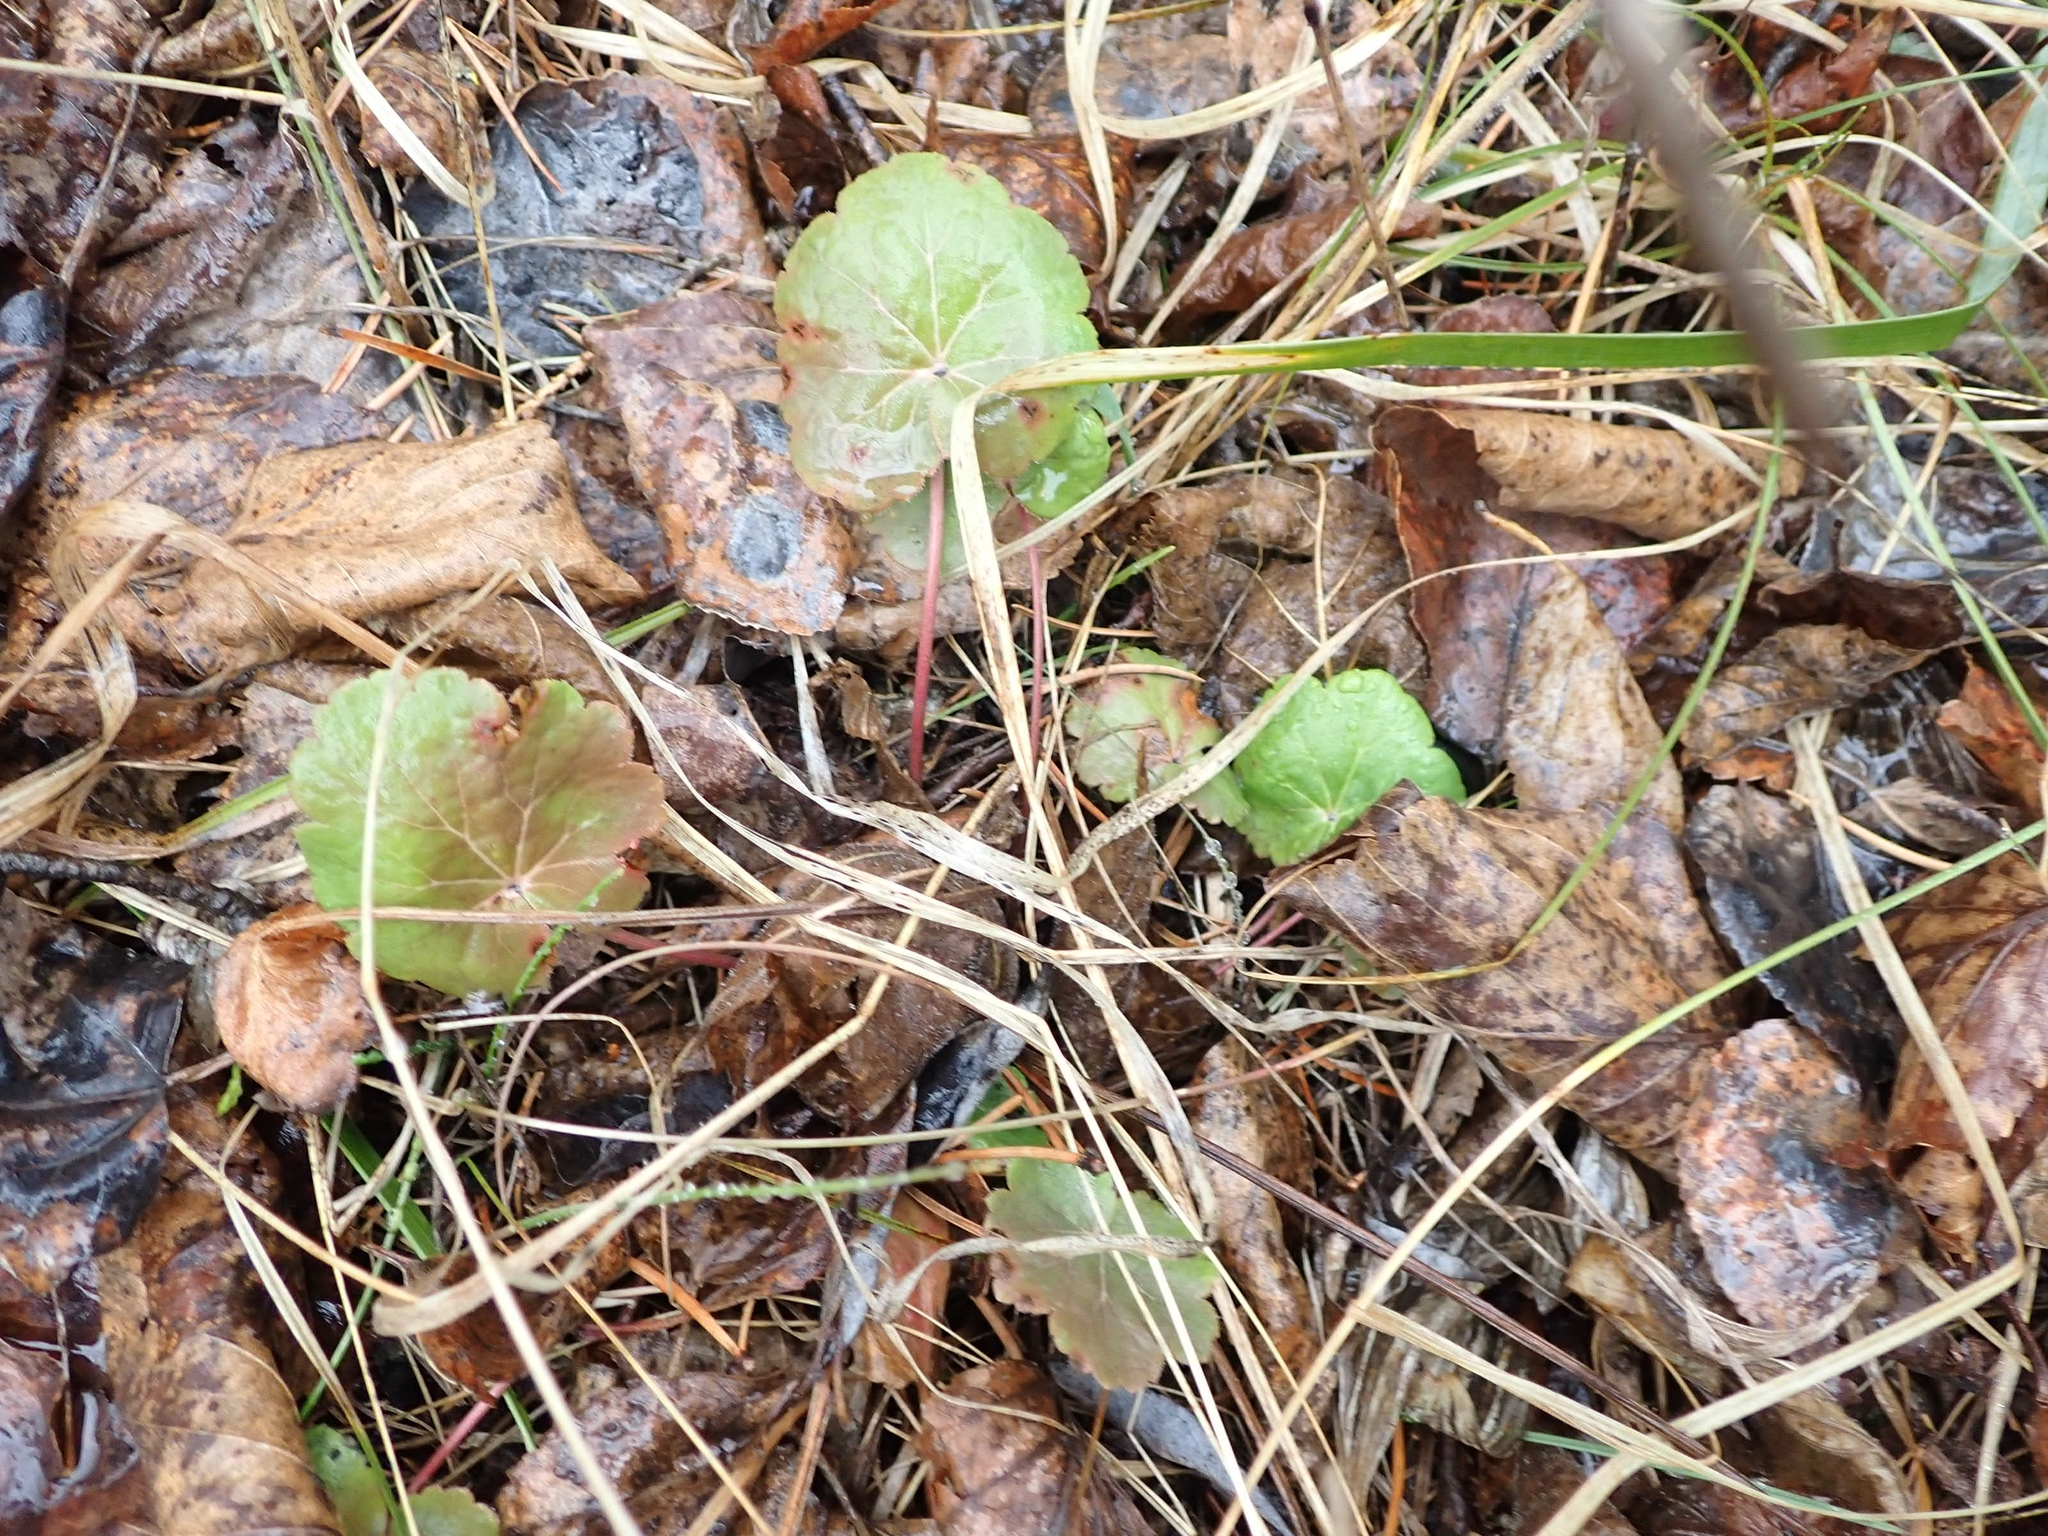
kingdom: Plantae
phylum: Tracheophyta
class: Magnoliopsida
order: Saxifragales
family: Saxifragaceae
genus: Heuchera
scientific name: Heuchera richardsonii
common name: Richardson's alumroot
